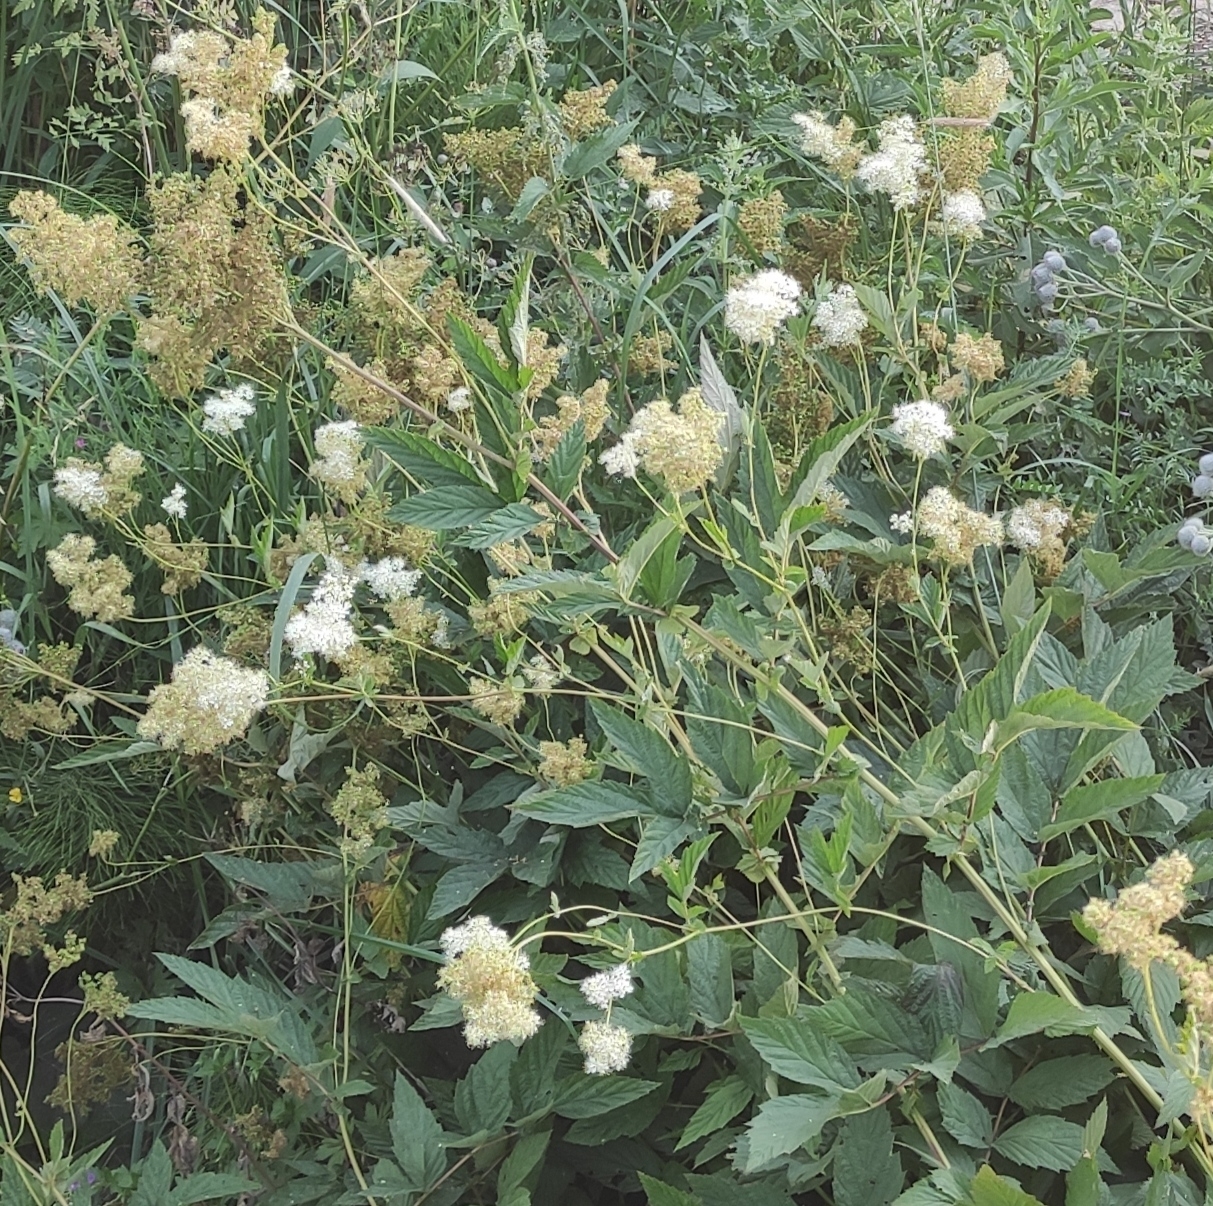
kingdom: Plantae
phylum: Tracheophyta
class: Magnoliopsida
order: Rosales
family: Rosaceae
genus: Filipendula
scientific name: Filipendula ulmaria
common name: Meadowsweet
